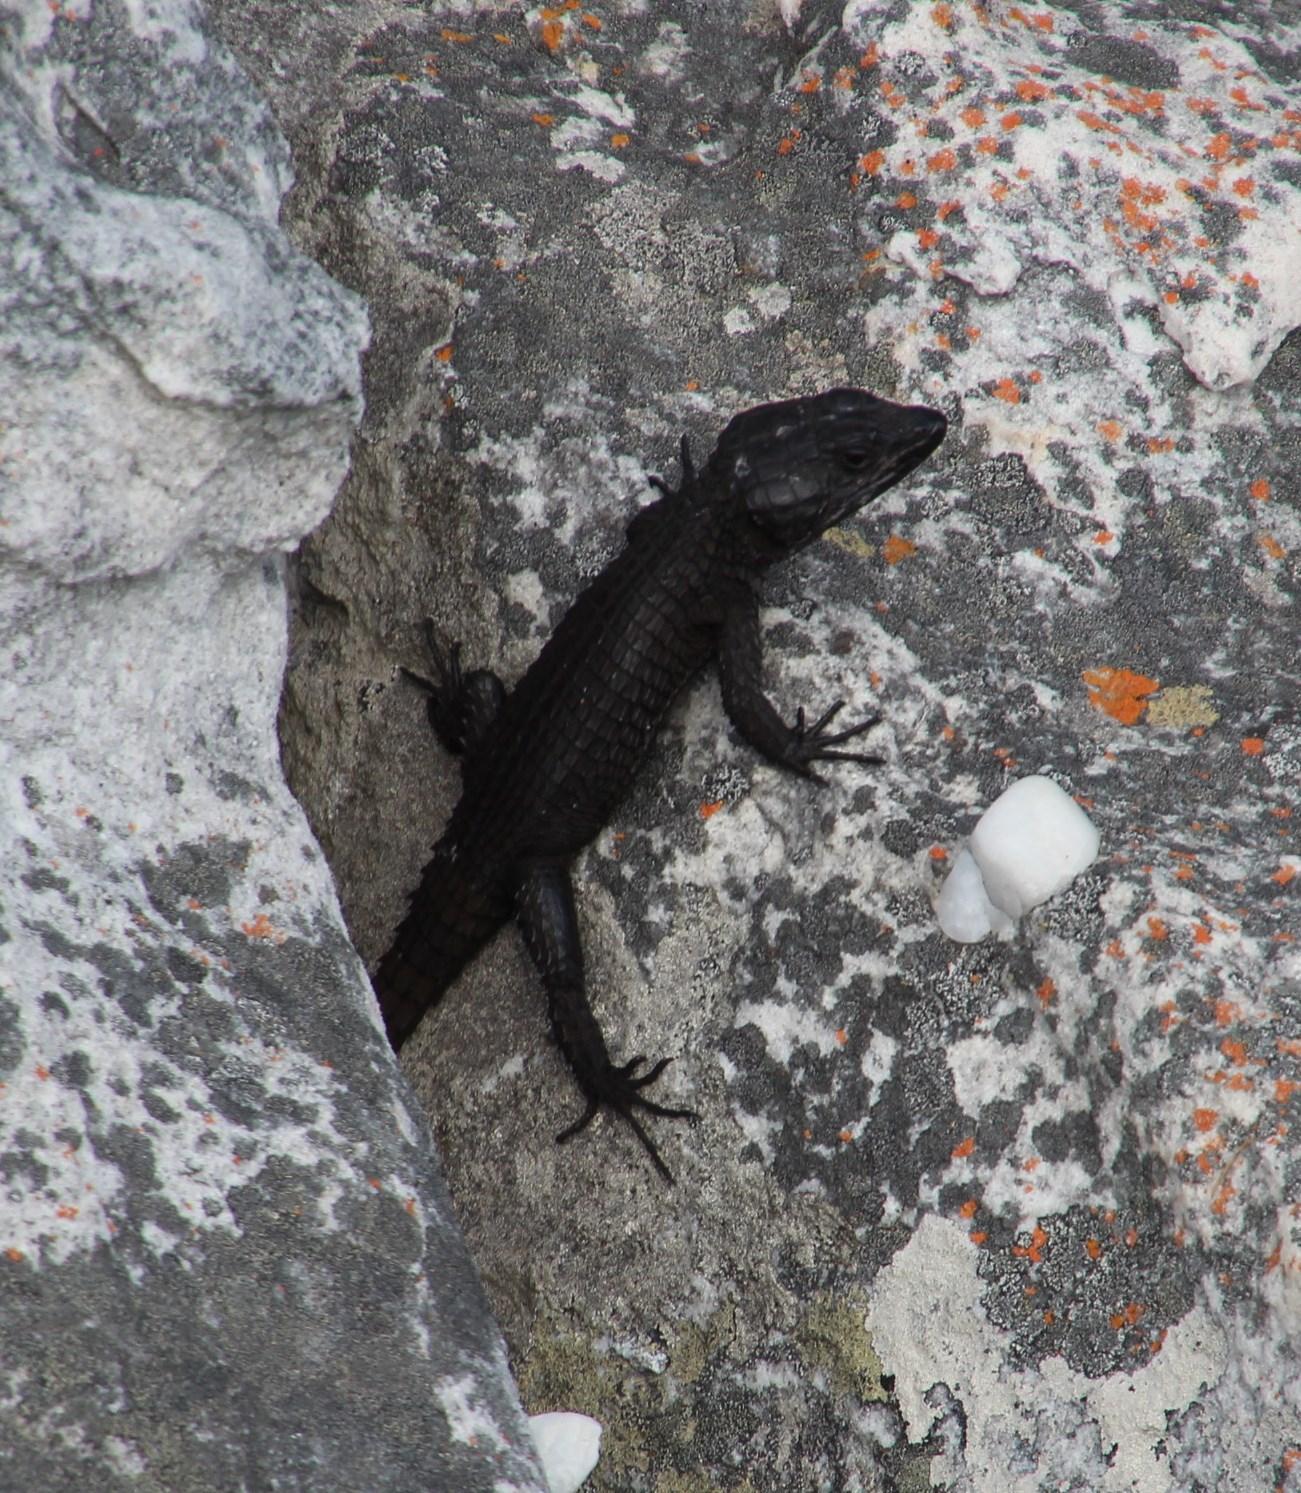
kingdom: Animalia
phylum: Chordata
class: Squamata
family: Cordylidae
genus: Cordylus
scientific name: Cordylus niger
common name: Black girdled lizard
